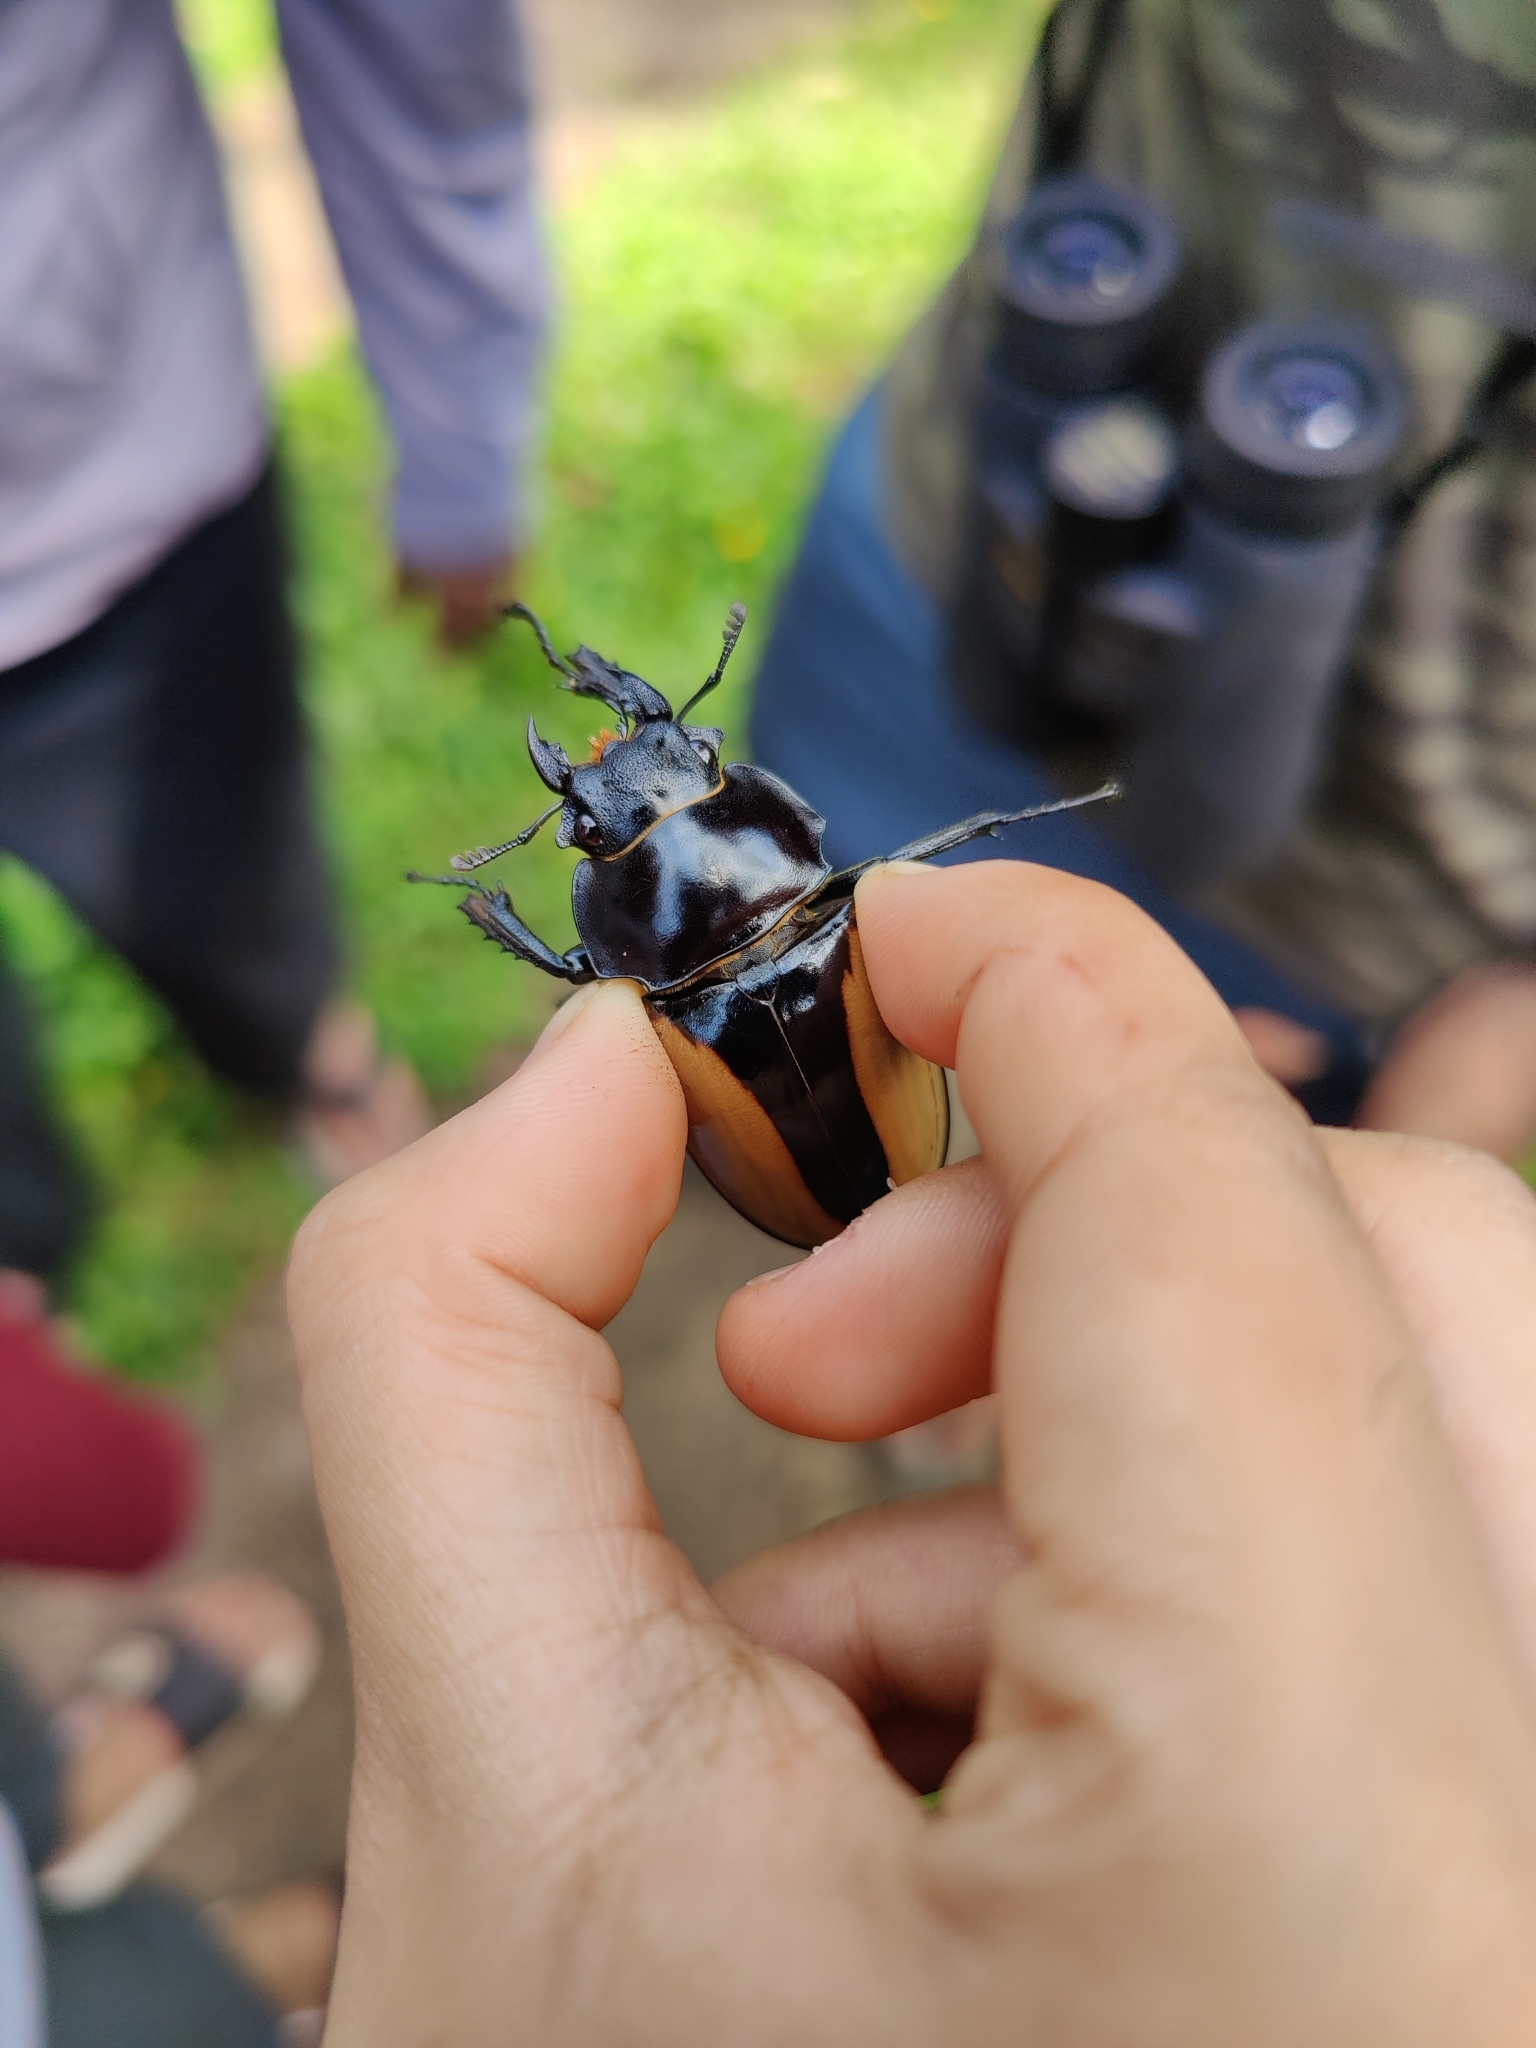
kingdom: Animalia
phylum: Arthropoda
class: Insecta
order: Coleoptera
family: Lucanidae
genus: Odontolabis
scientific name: Odontolabis burmeisteri
